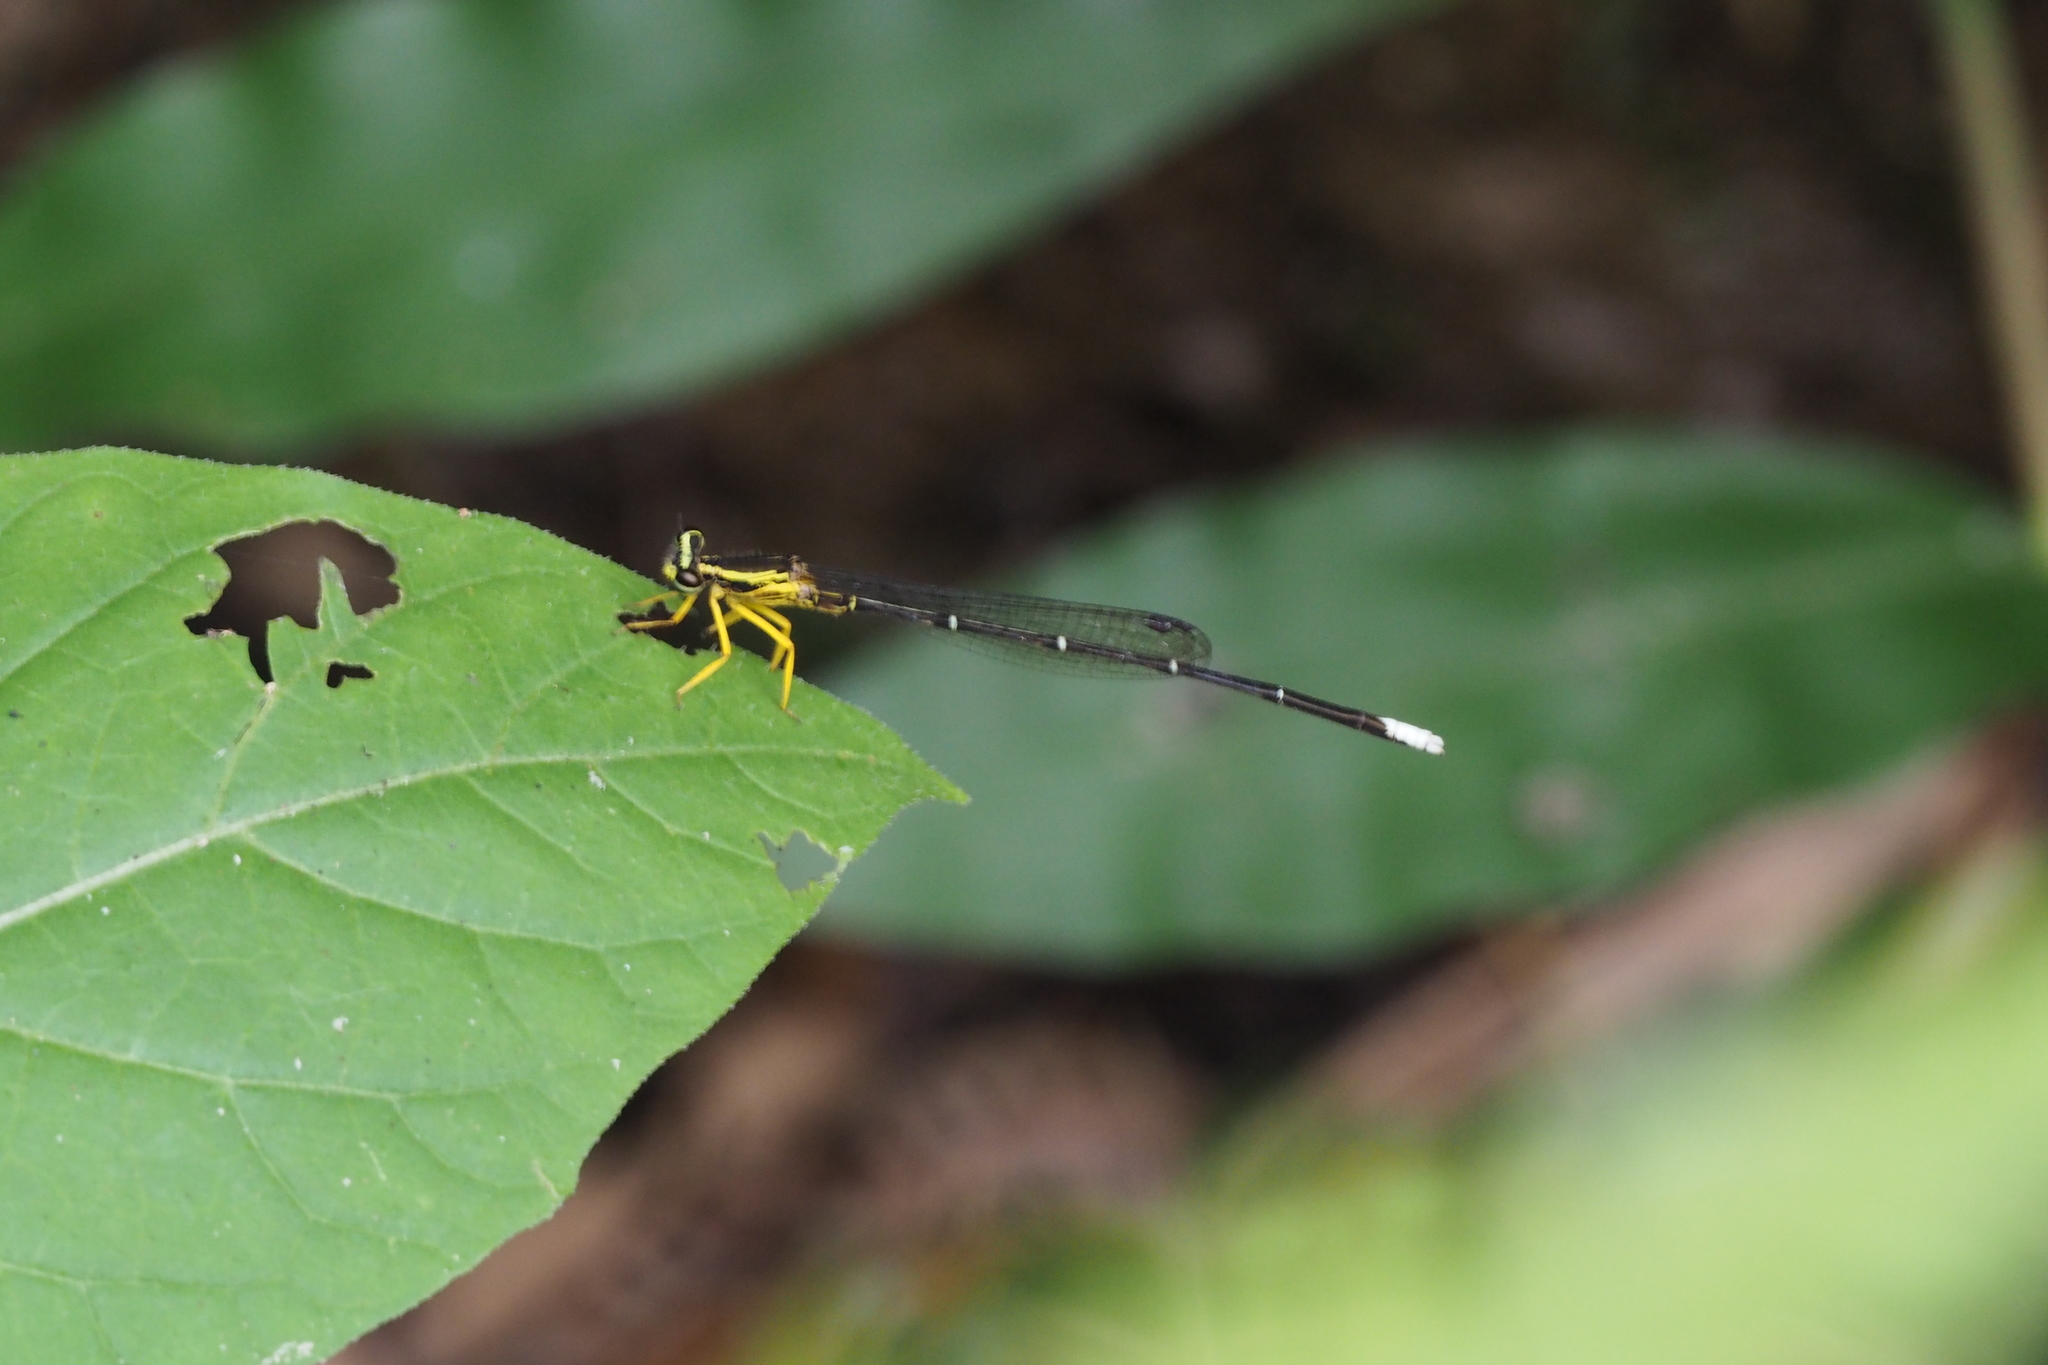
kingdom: Animalia
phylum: Arthropoda
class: Insecta
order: Odonata
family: Platycnemididae
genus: Copera
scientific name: Copera marginipes
